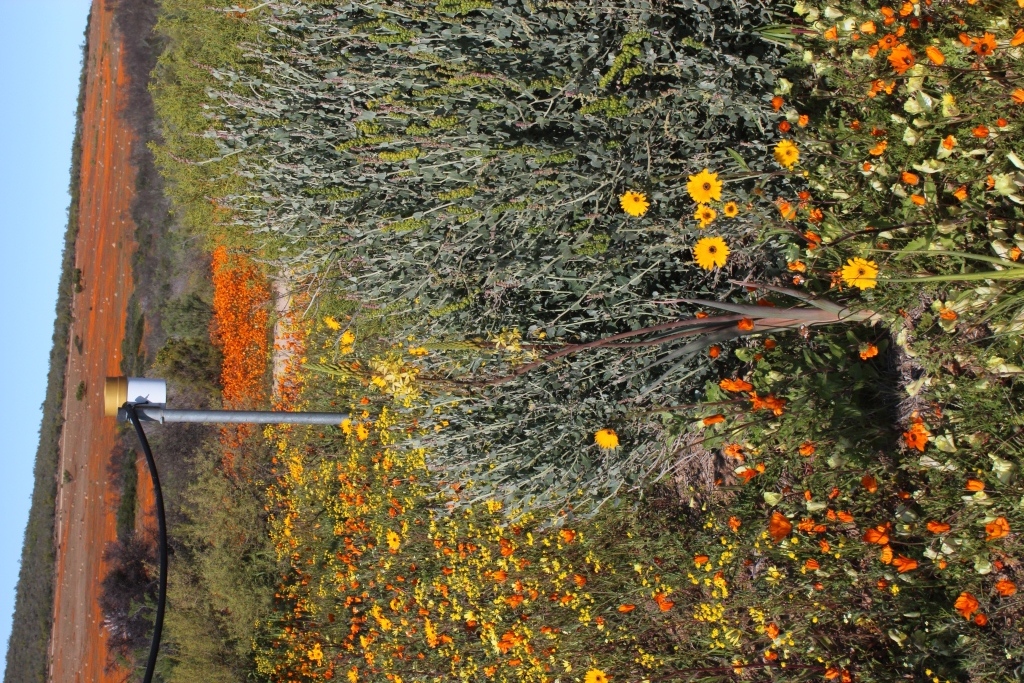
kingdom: Plantae
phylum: Tracheophyta
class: Liliopsida
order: Asparagales
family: Asphodelaceae
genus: Bulbine
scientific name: Bulbine praemorsa
